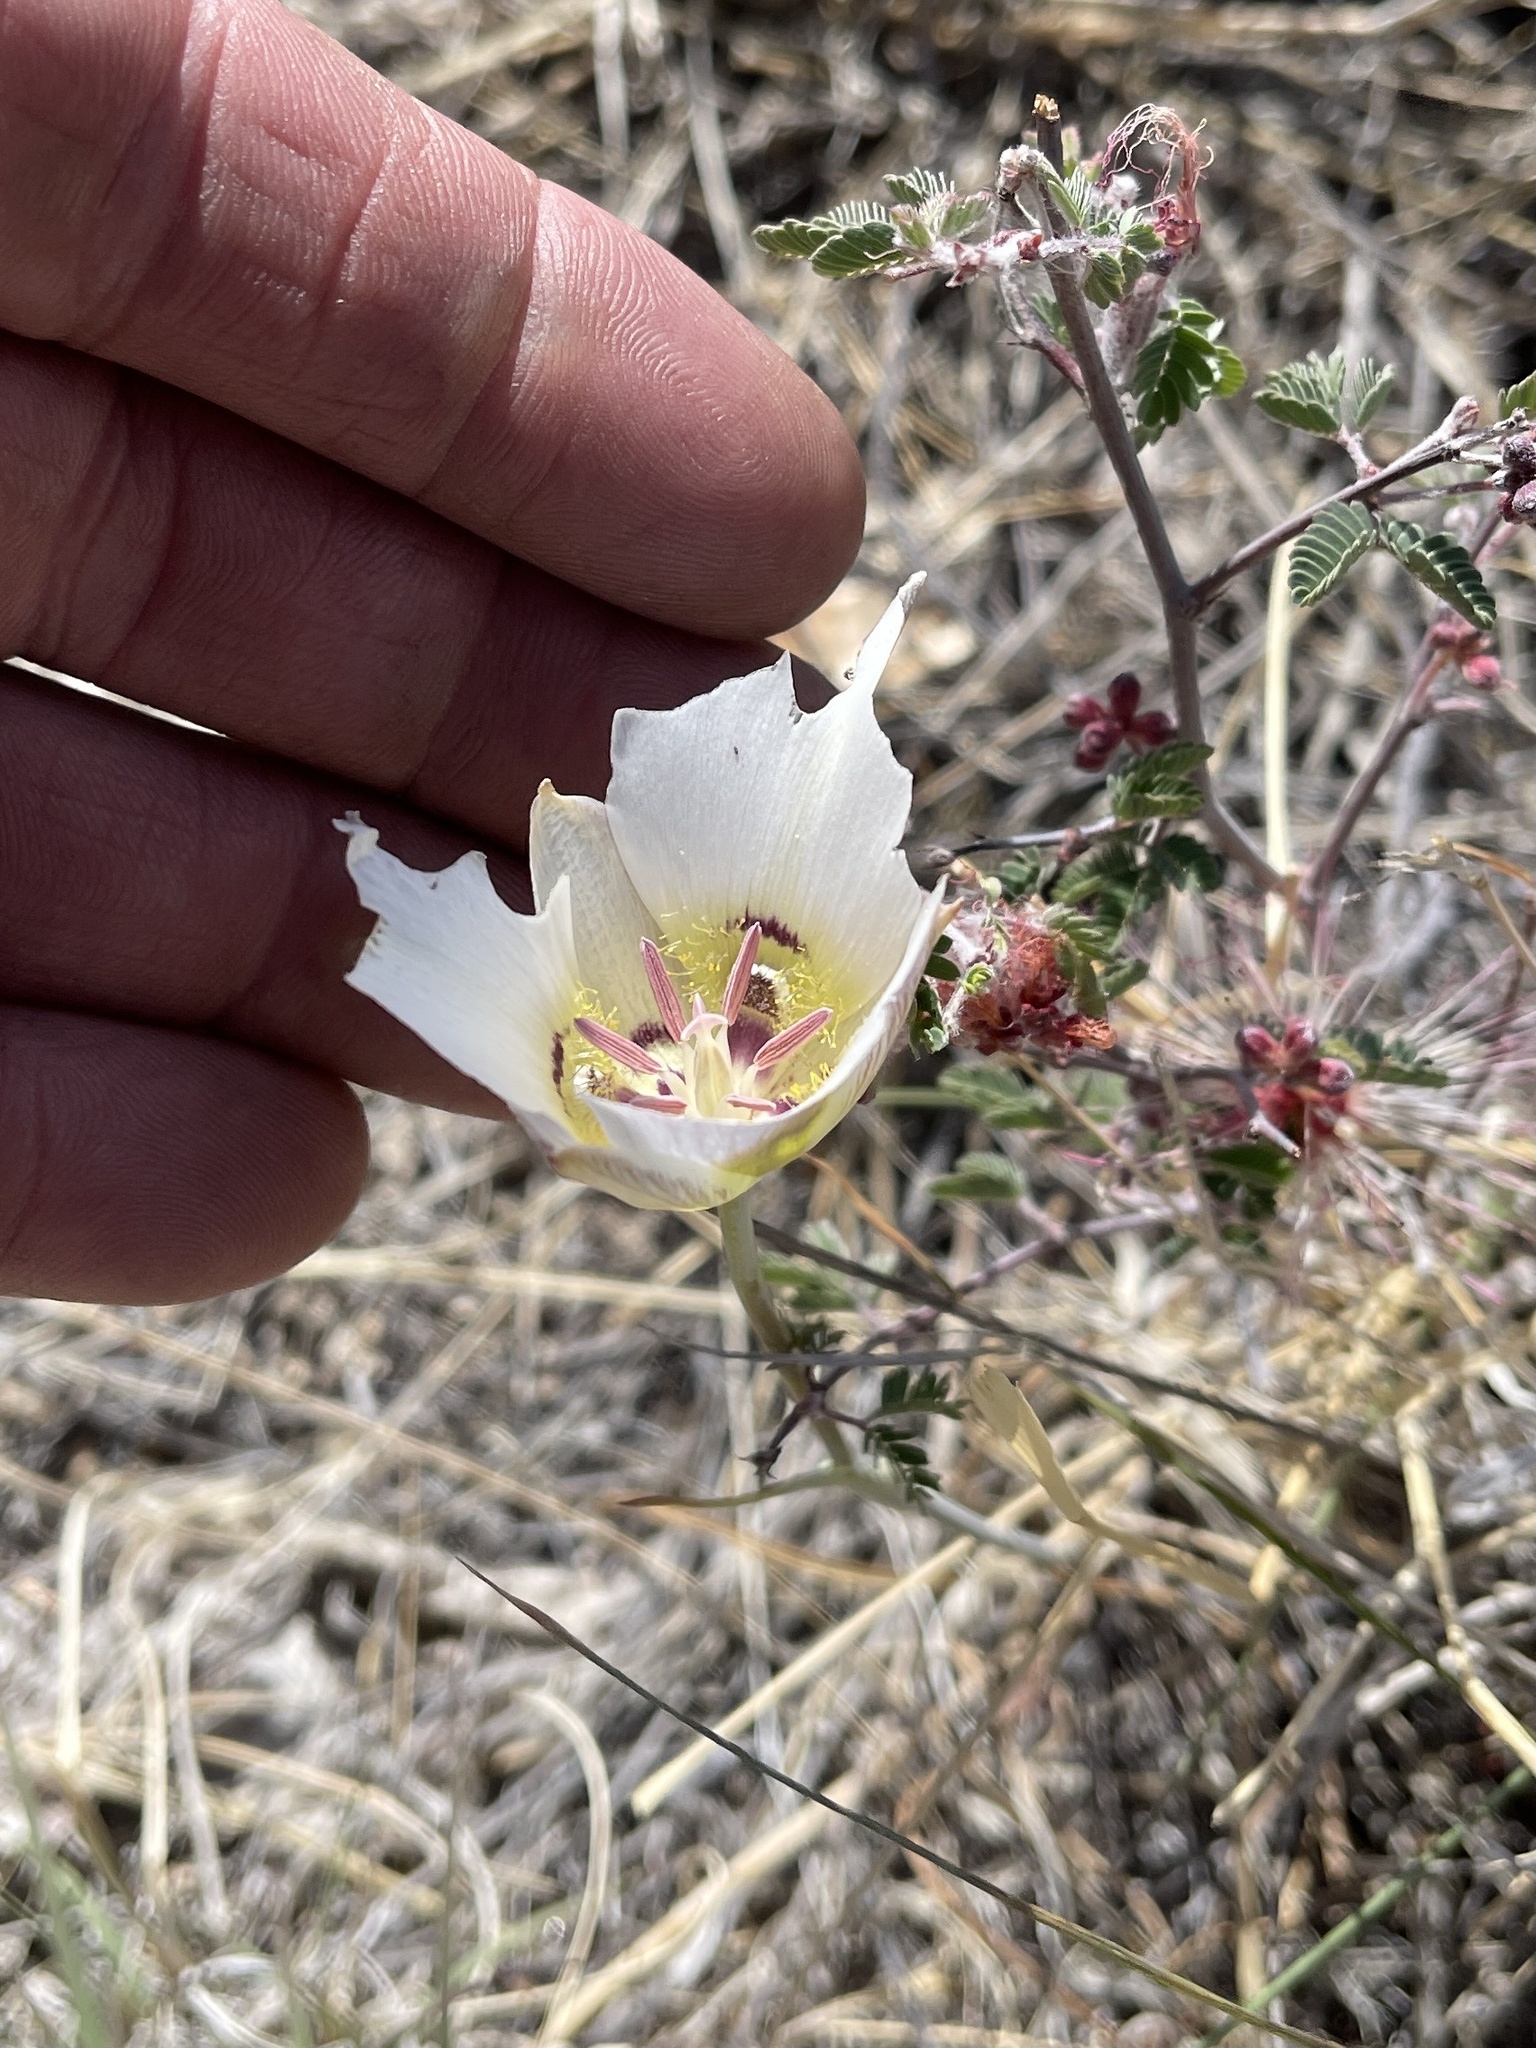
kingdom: Plantae
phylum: Tracheophyta
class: Liliopsida
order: Liliales
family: Liliaceae
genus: Calochortus
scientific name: Calochortus ambiguus
